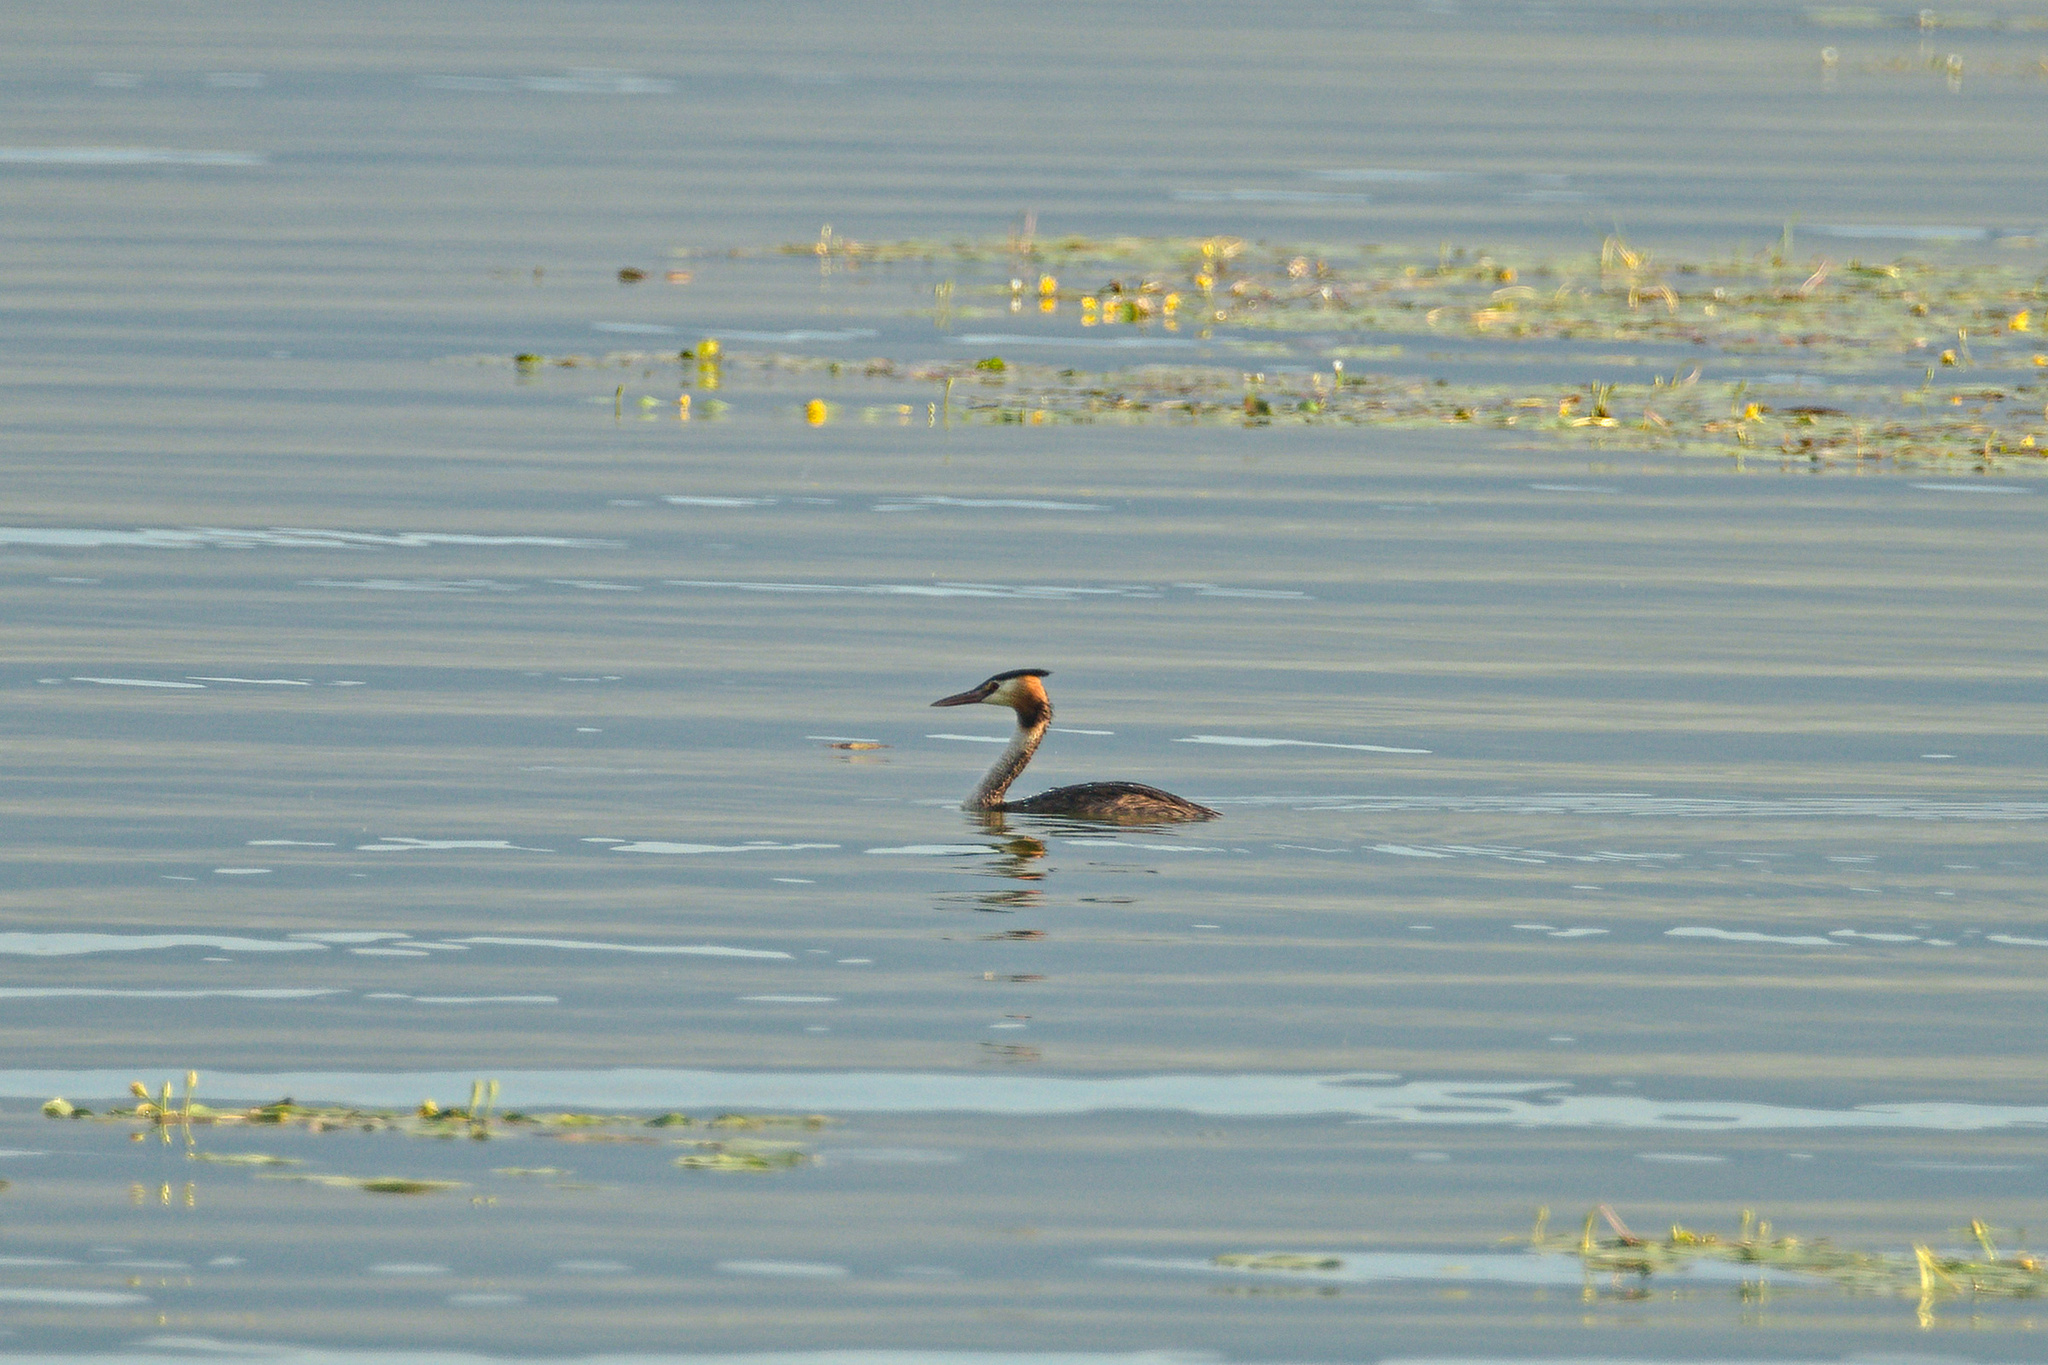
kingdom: Animalia
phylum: Chordata
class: Aves
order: Podicipediformes
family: Podicipedidae
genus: Podiceps
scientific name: Podiceps cristatus
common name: Great crested grebe
